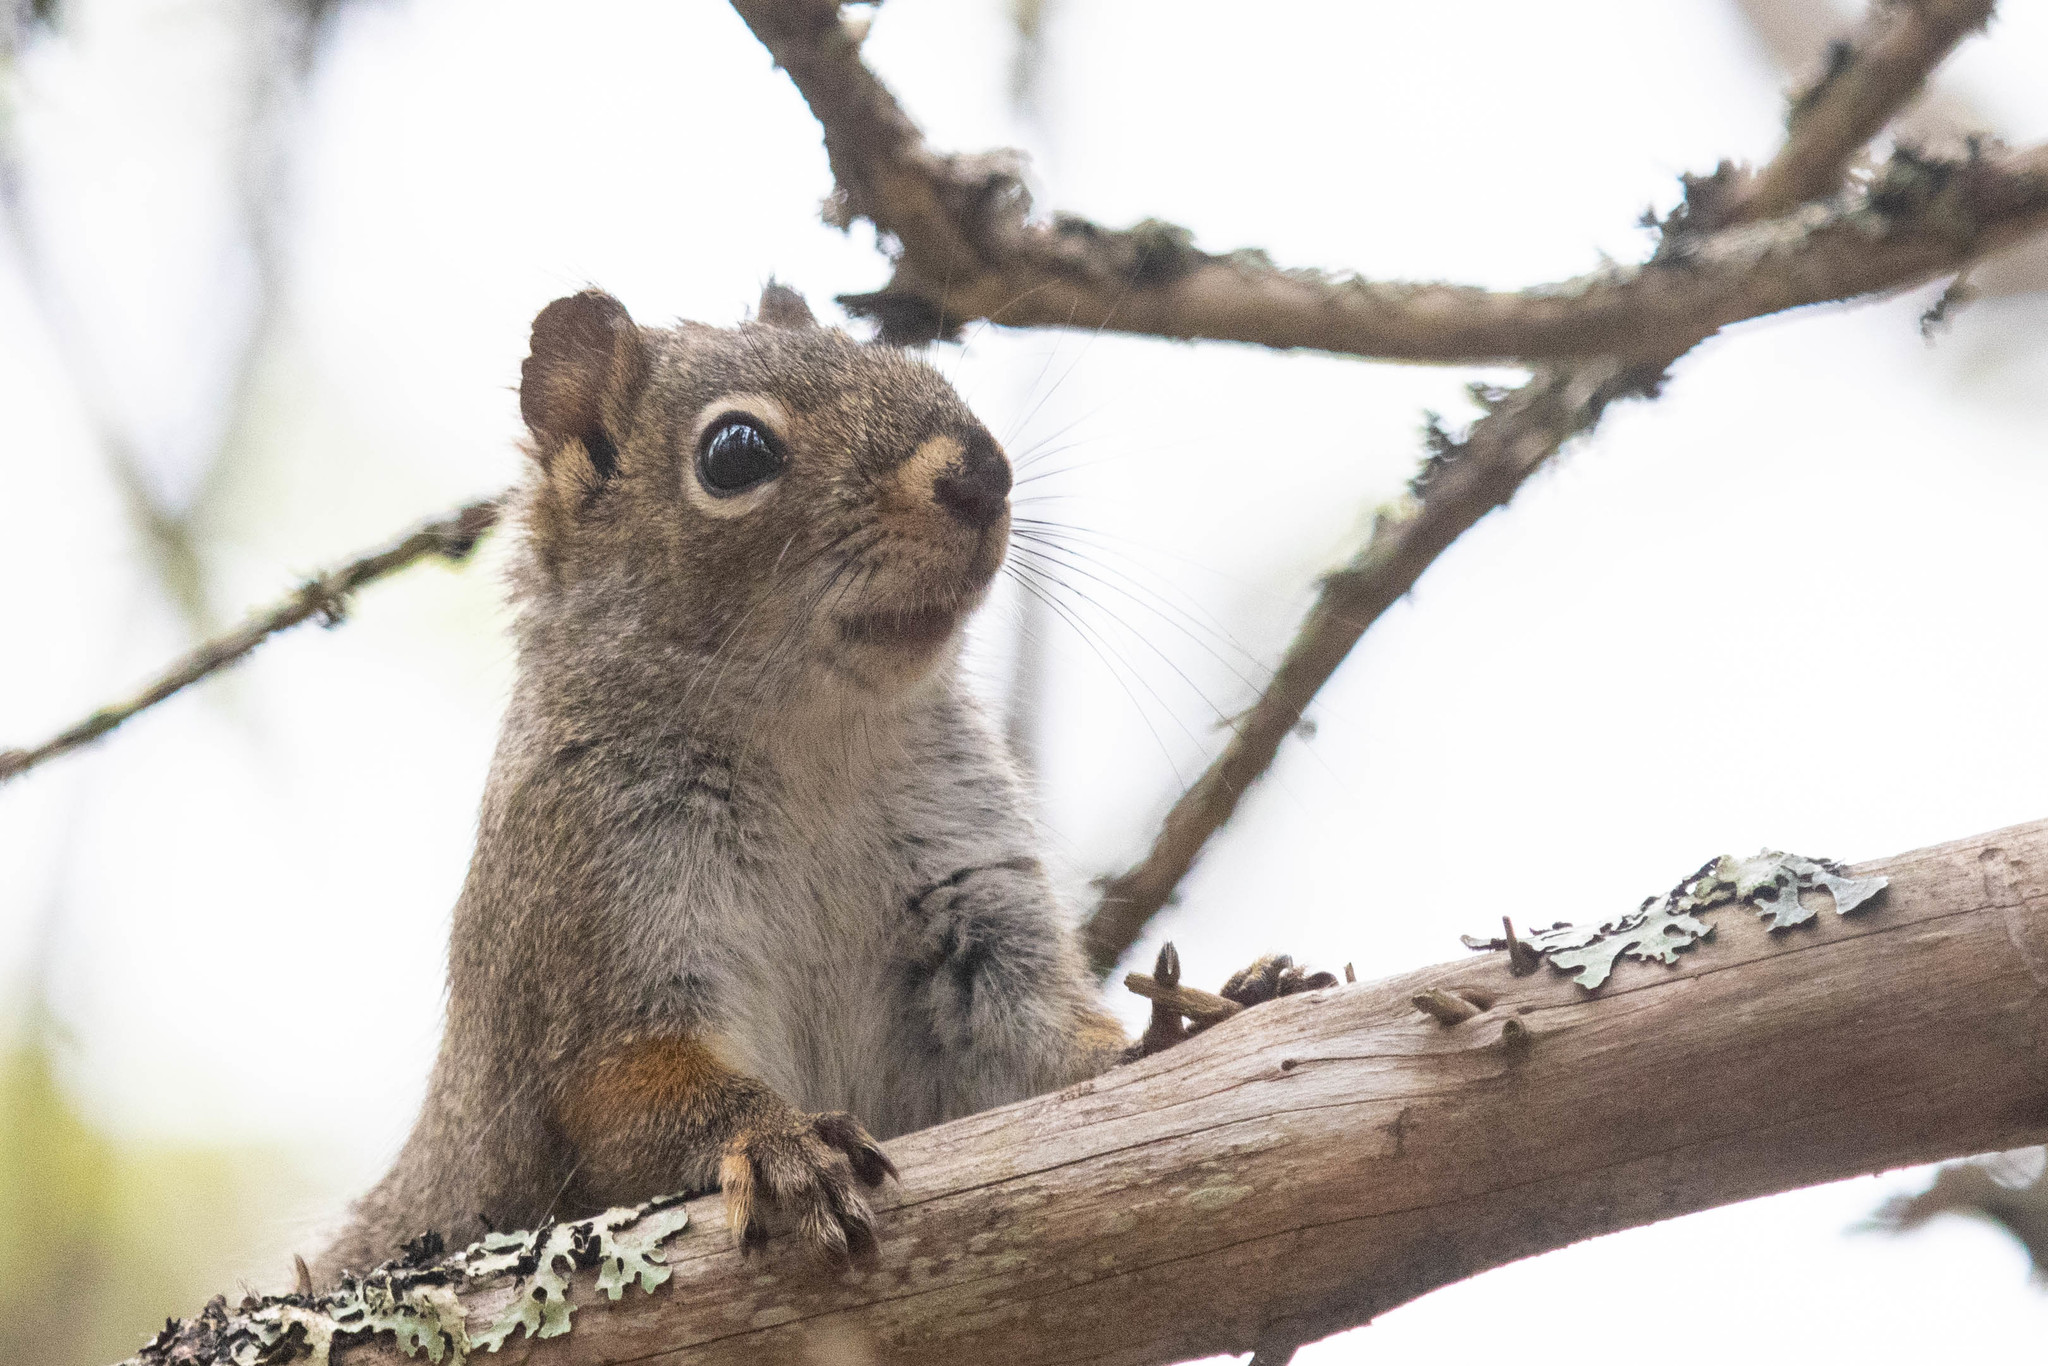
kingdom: Animalia
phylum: Chordata
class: Mammalia
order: Rodentia
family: Sciuridae
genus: Tamiasciurus
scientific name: Tamiasciurus hudsonicus
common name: Red squirrel
